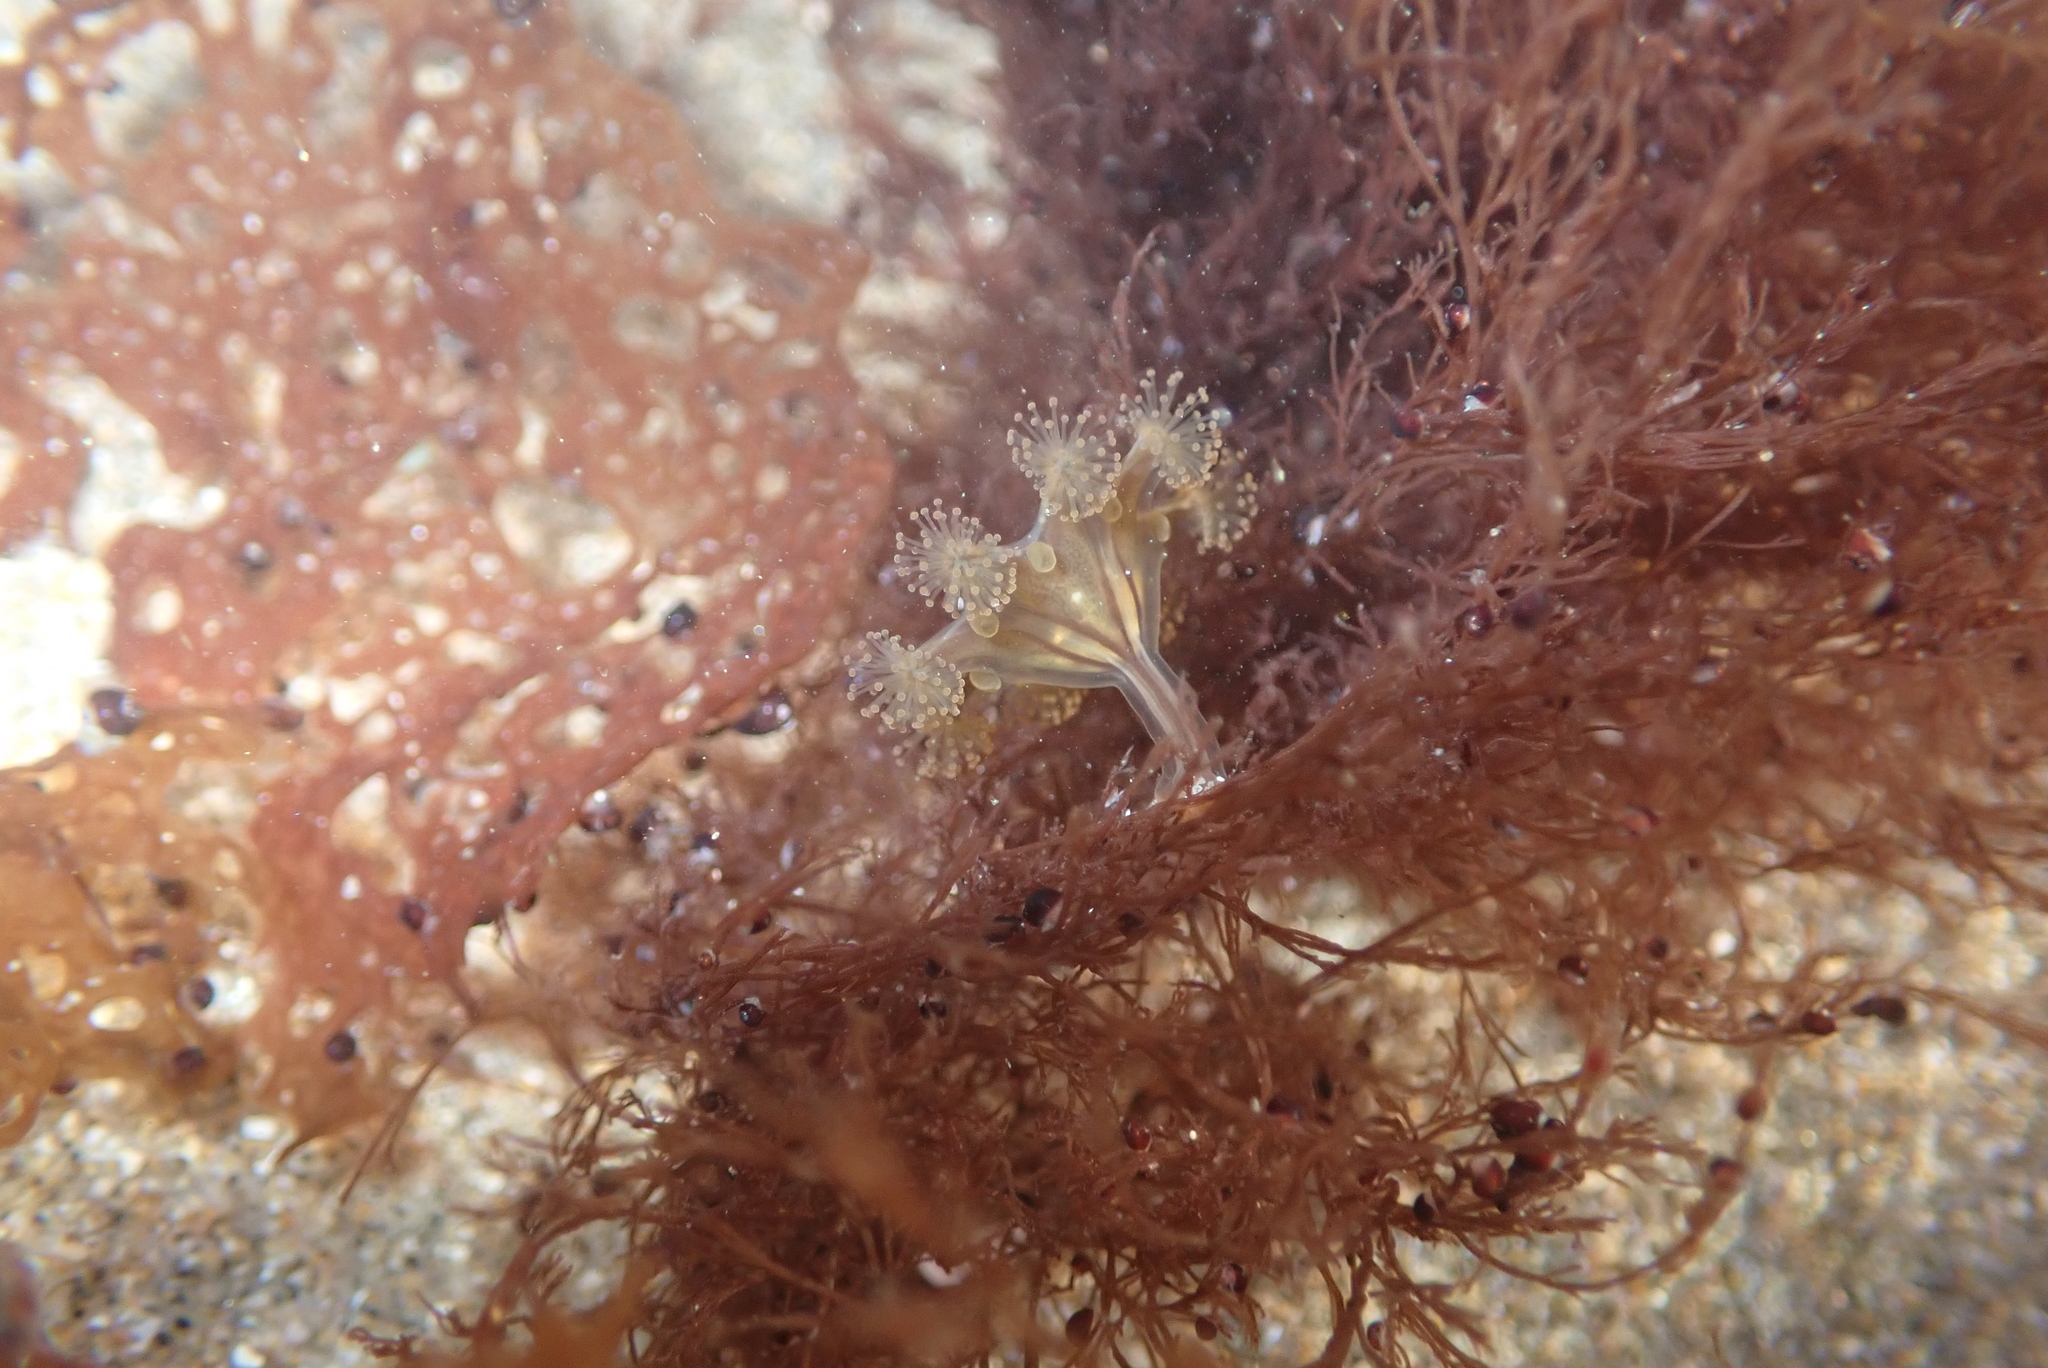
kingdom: Animalia
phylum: Cnidaria
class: Staurozoa
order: Stauromedusae
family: Haliclystidae
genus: Haliclystus
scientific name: Haliclystus sanjuanensis
